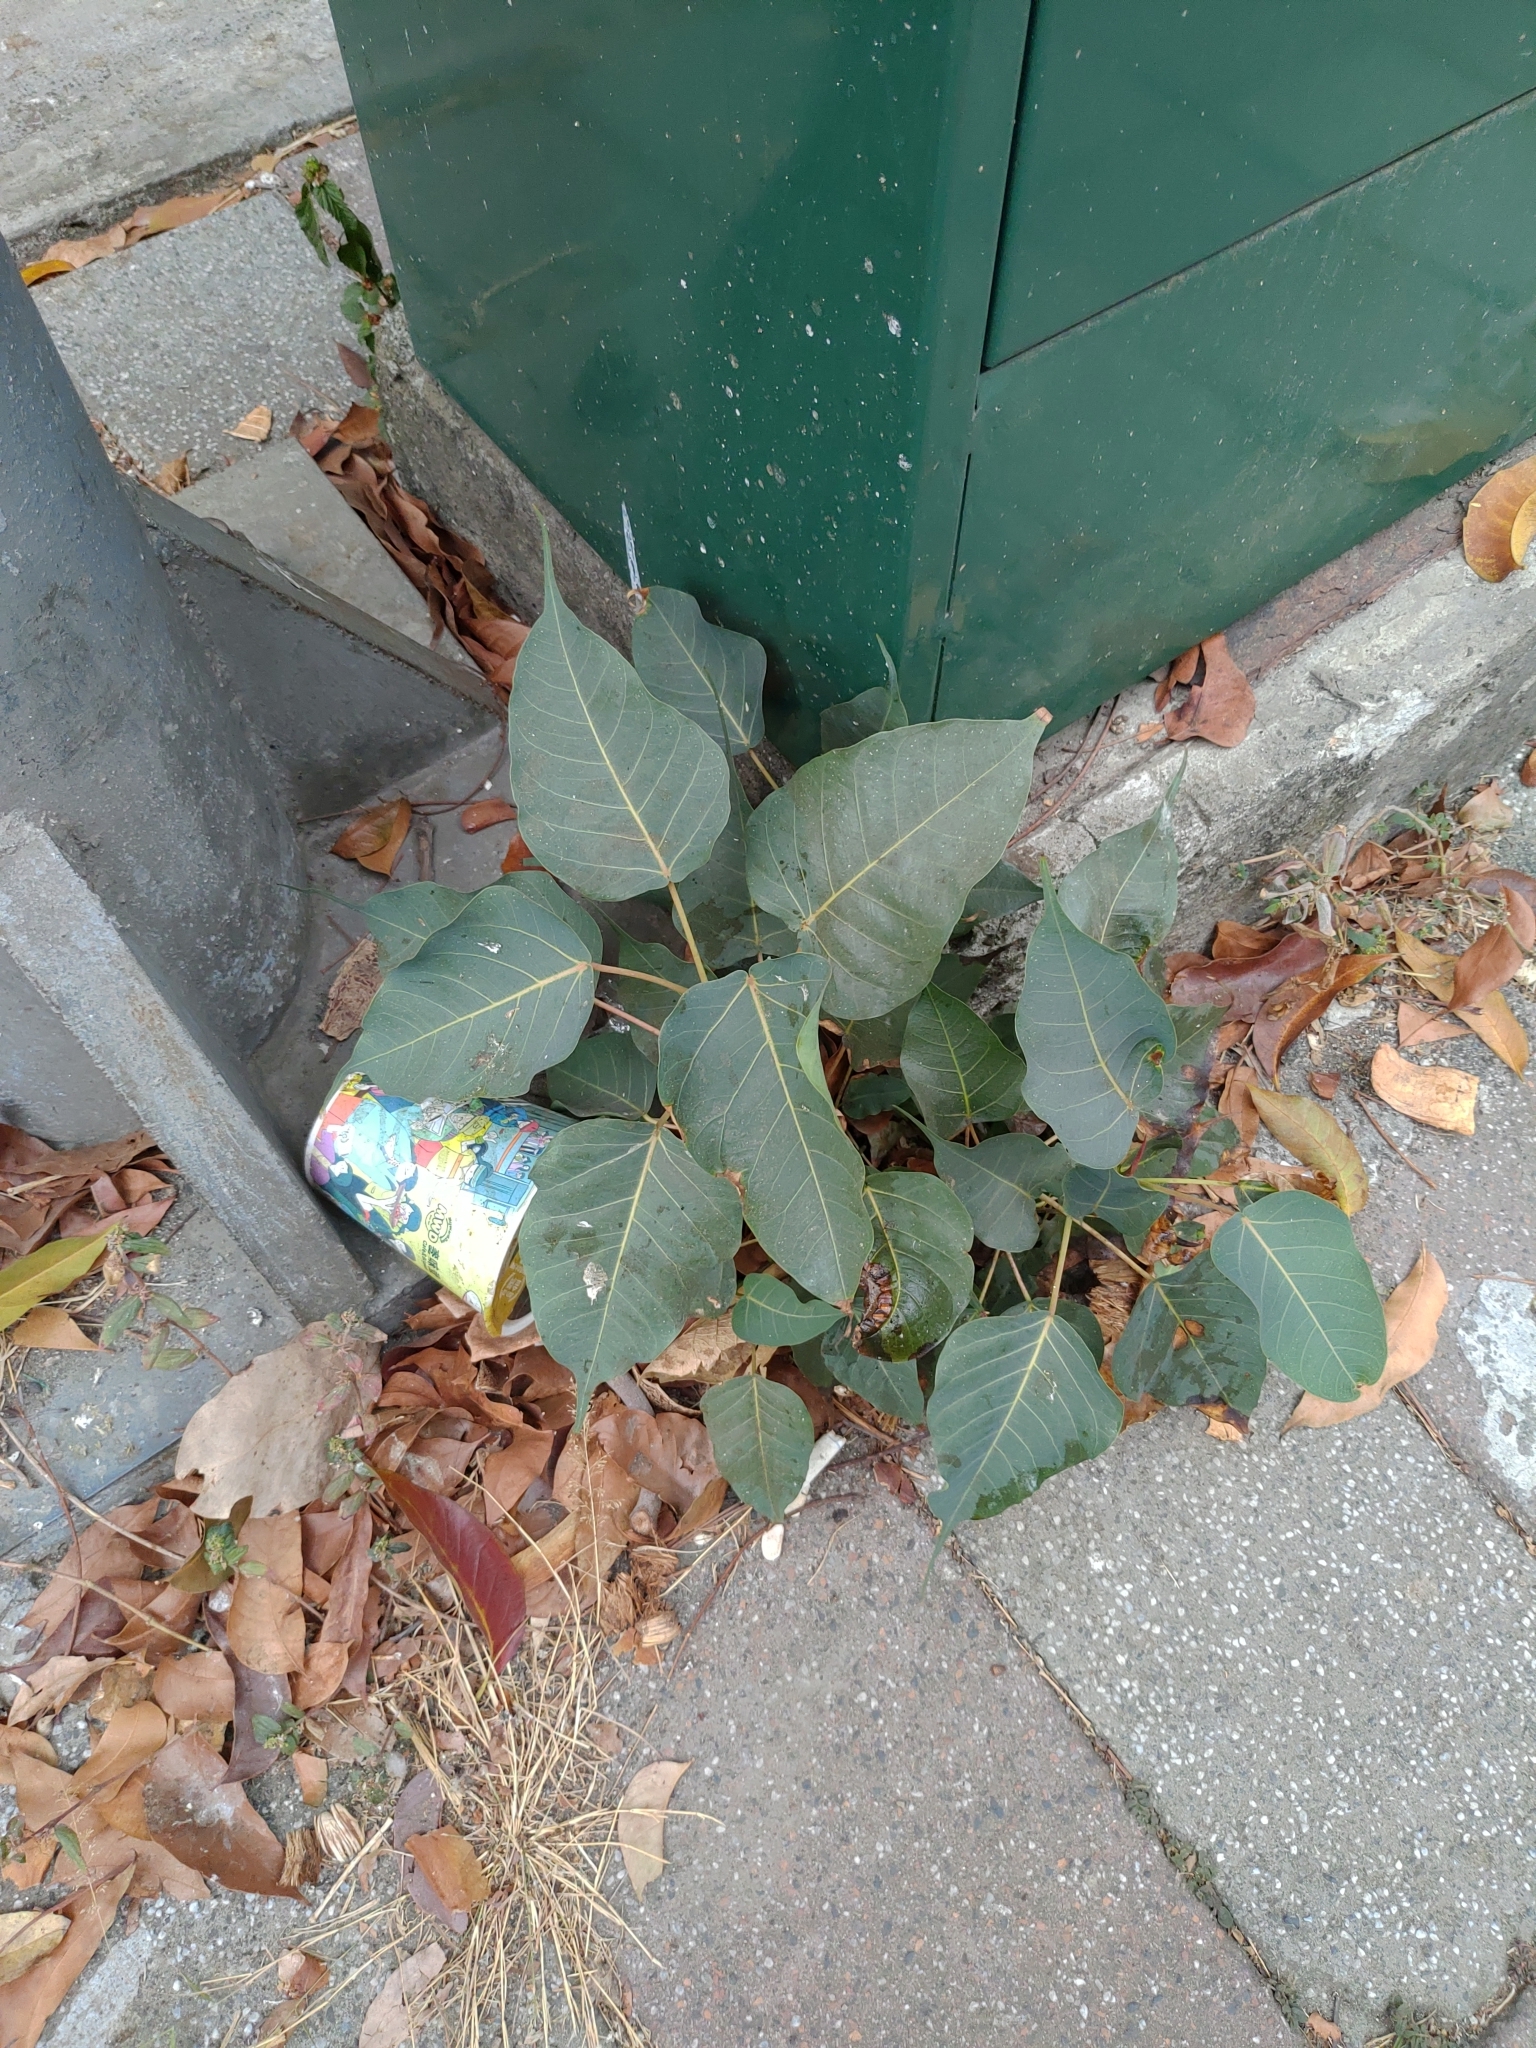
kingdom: Plantae
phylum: Tracheophyta
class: Magnoliopsida
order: Rosales
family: Moraceae
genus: Ficus
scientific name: Ficus religiosa
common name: Bodhi tree
